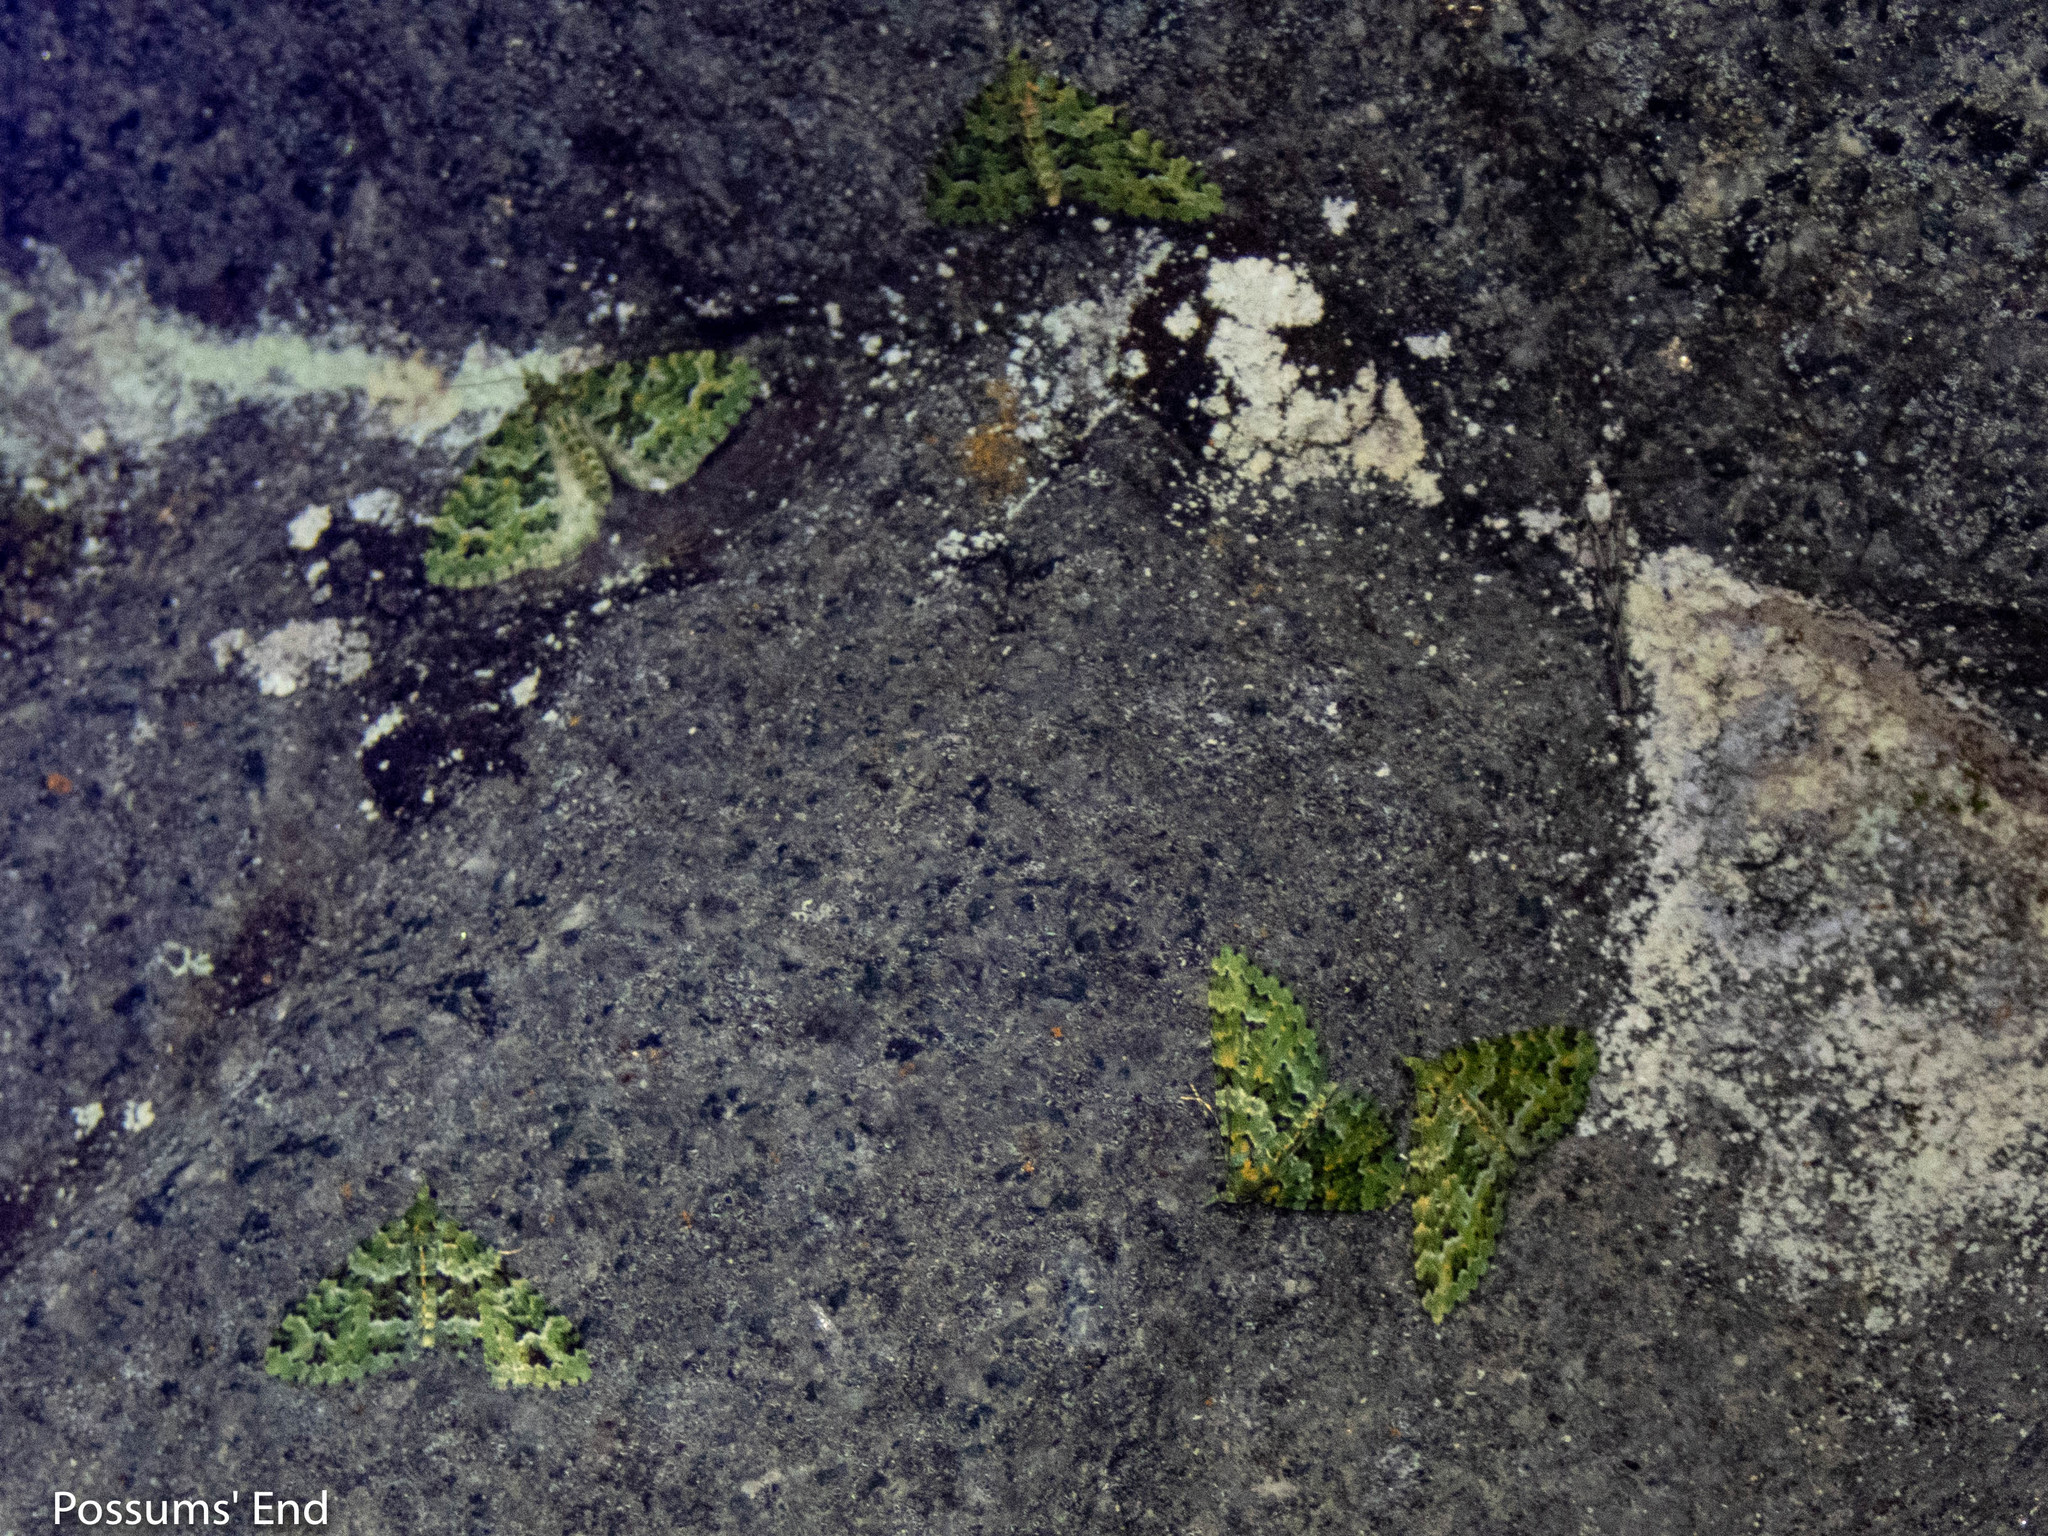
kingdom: Animalia
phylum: Arthropoda
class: Insecta
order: Lepidoptera
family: Geometridae
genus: Pasiphila
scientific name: Pasiphila melochlora
